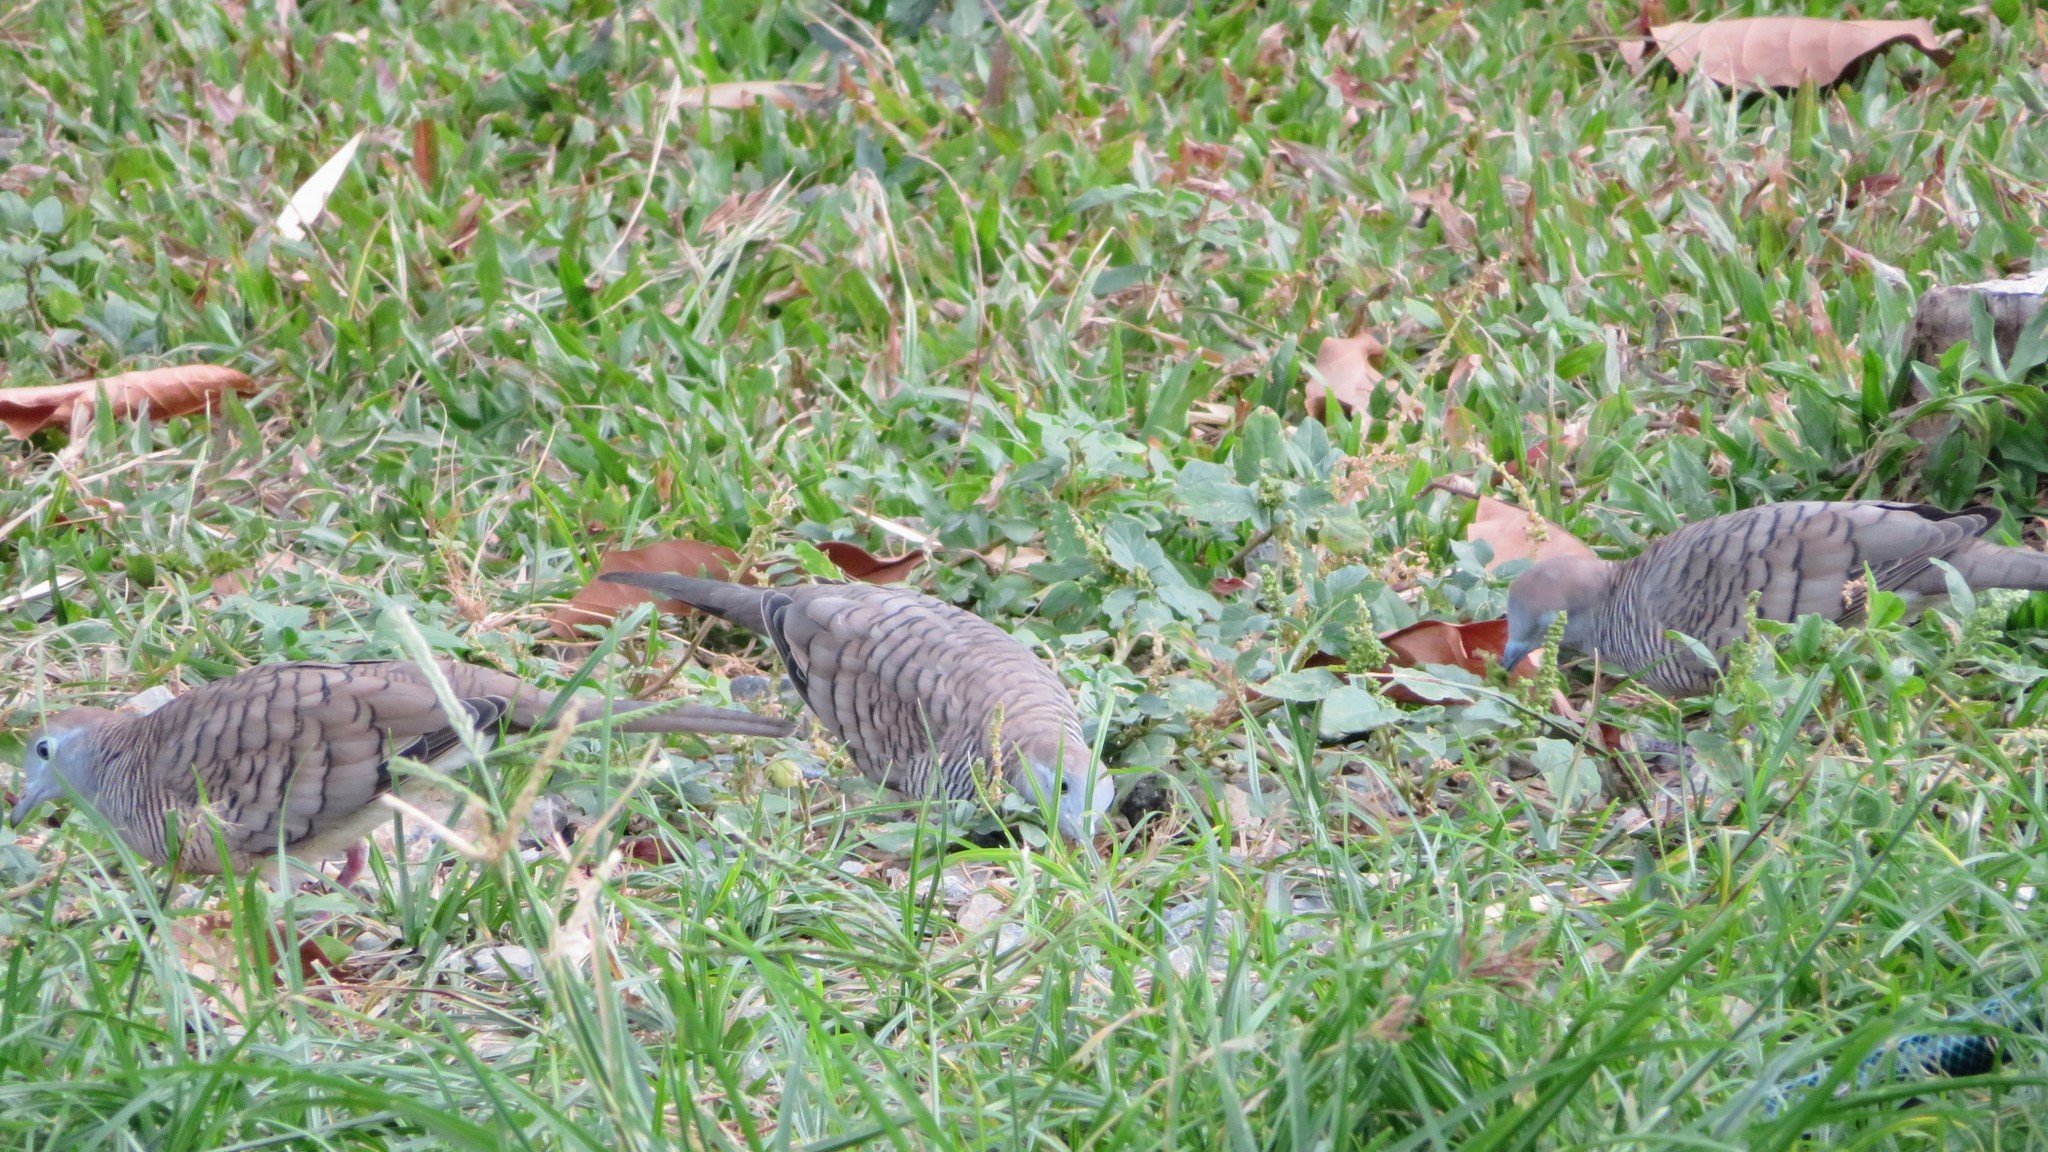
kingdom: Animalia
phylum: Chordata
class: Aves
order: Columbiformes
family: Columbidae
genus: Geopelia
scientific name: Geopelia striata
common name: Zebra dove
